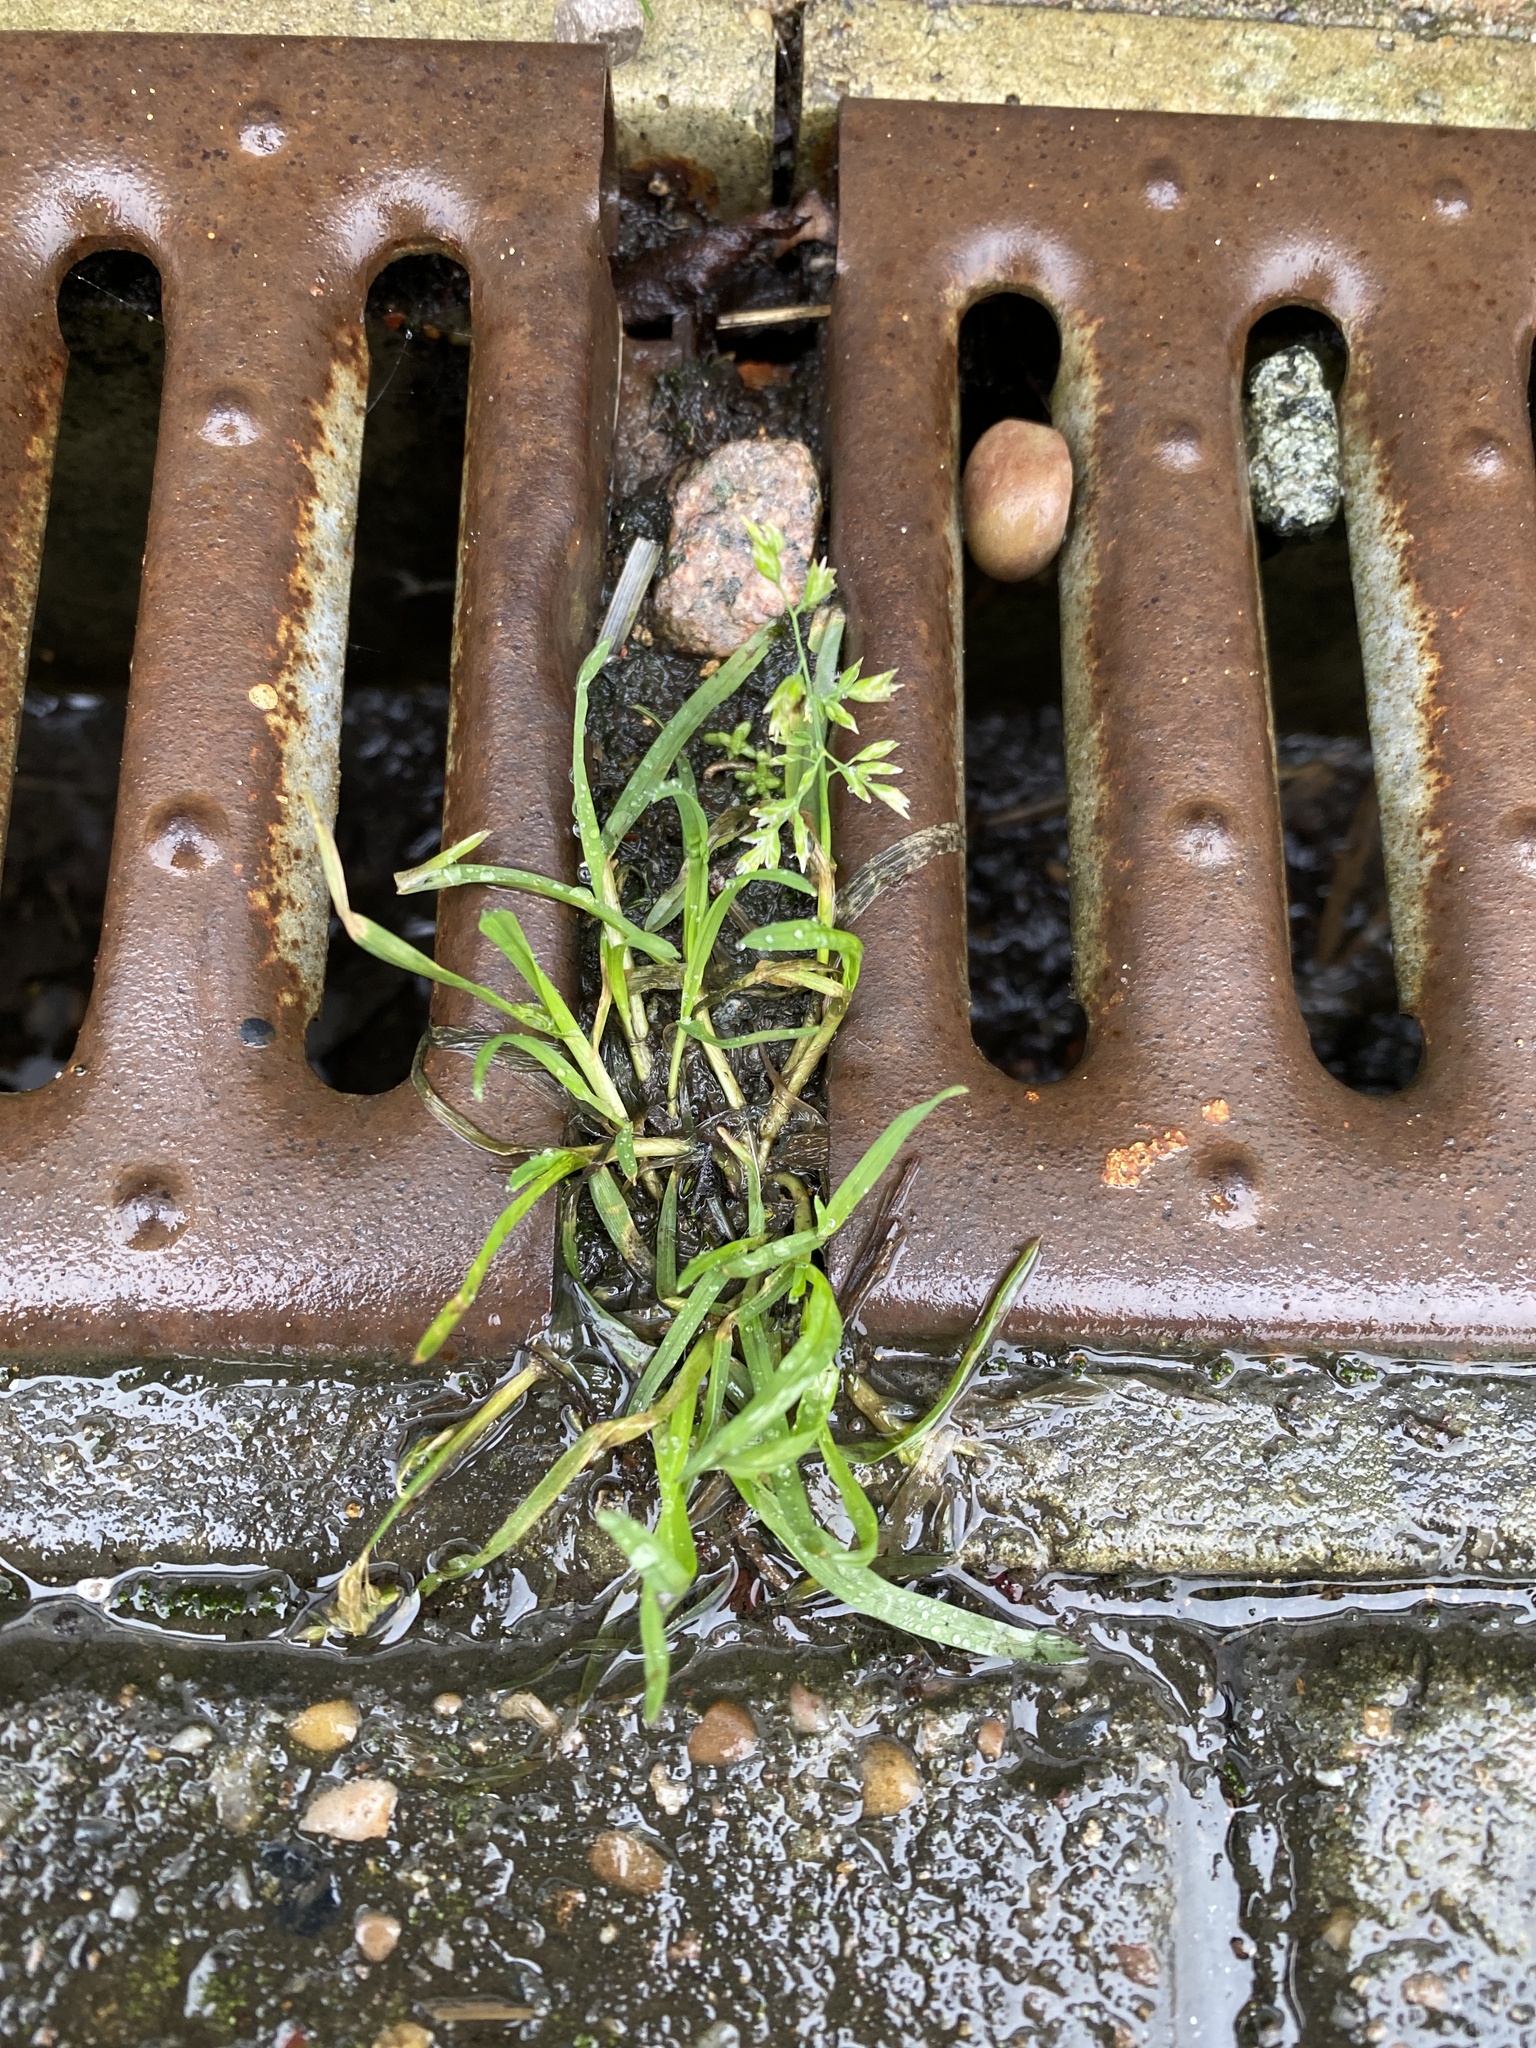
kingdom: Plantae
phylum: Tracheophyta
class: Liliopsida
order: Poales
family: Poaceae
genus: Poa
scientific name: Poa annua
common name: Annual bluegrass
